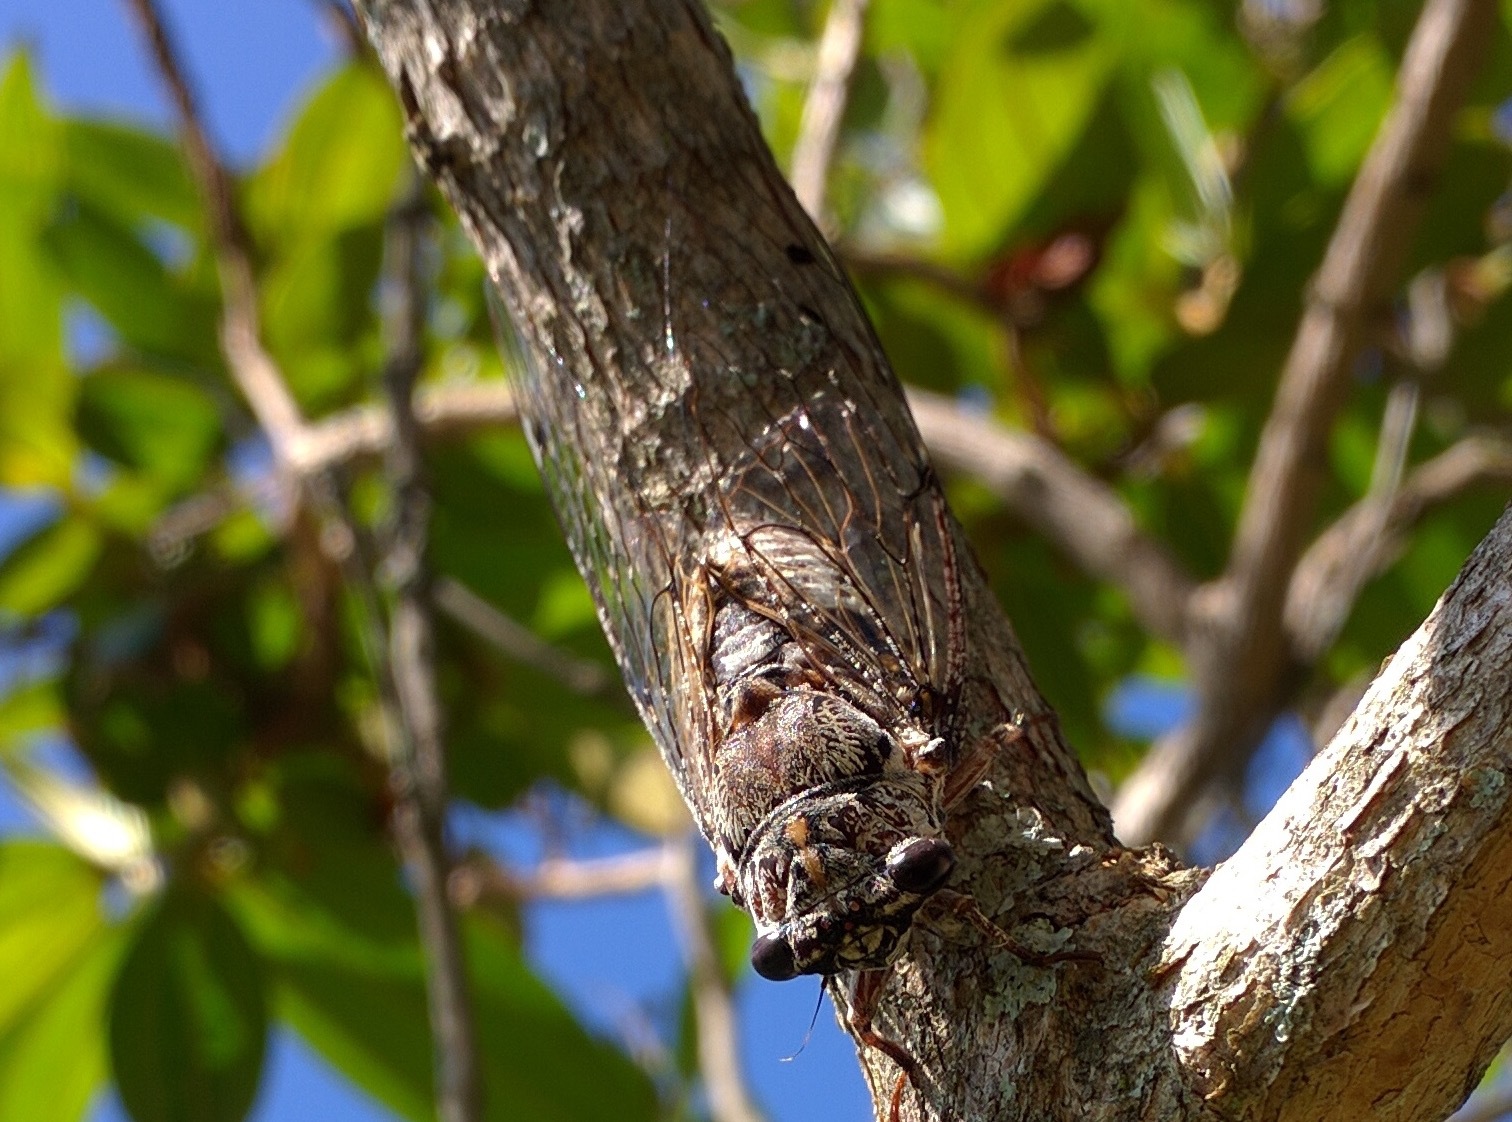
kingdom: Animalia
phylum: Arthropoda
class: Insecta
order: Hemiptera
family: Cicadidae
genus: Aleeta
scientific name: Aleeta curvicosta
